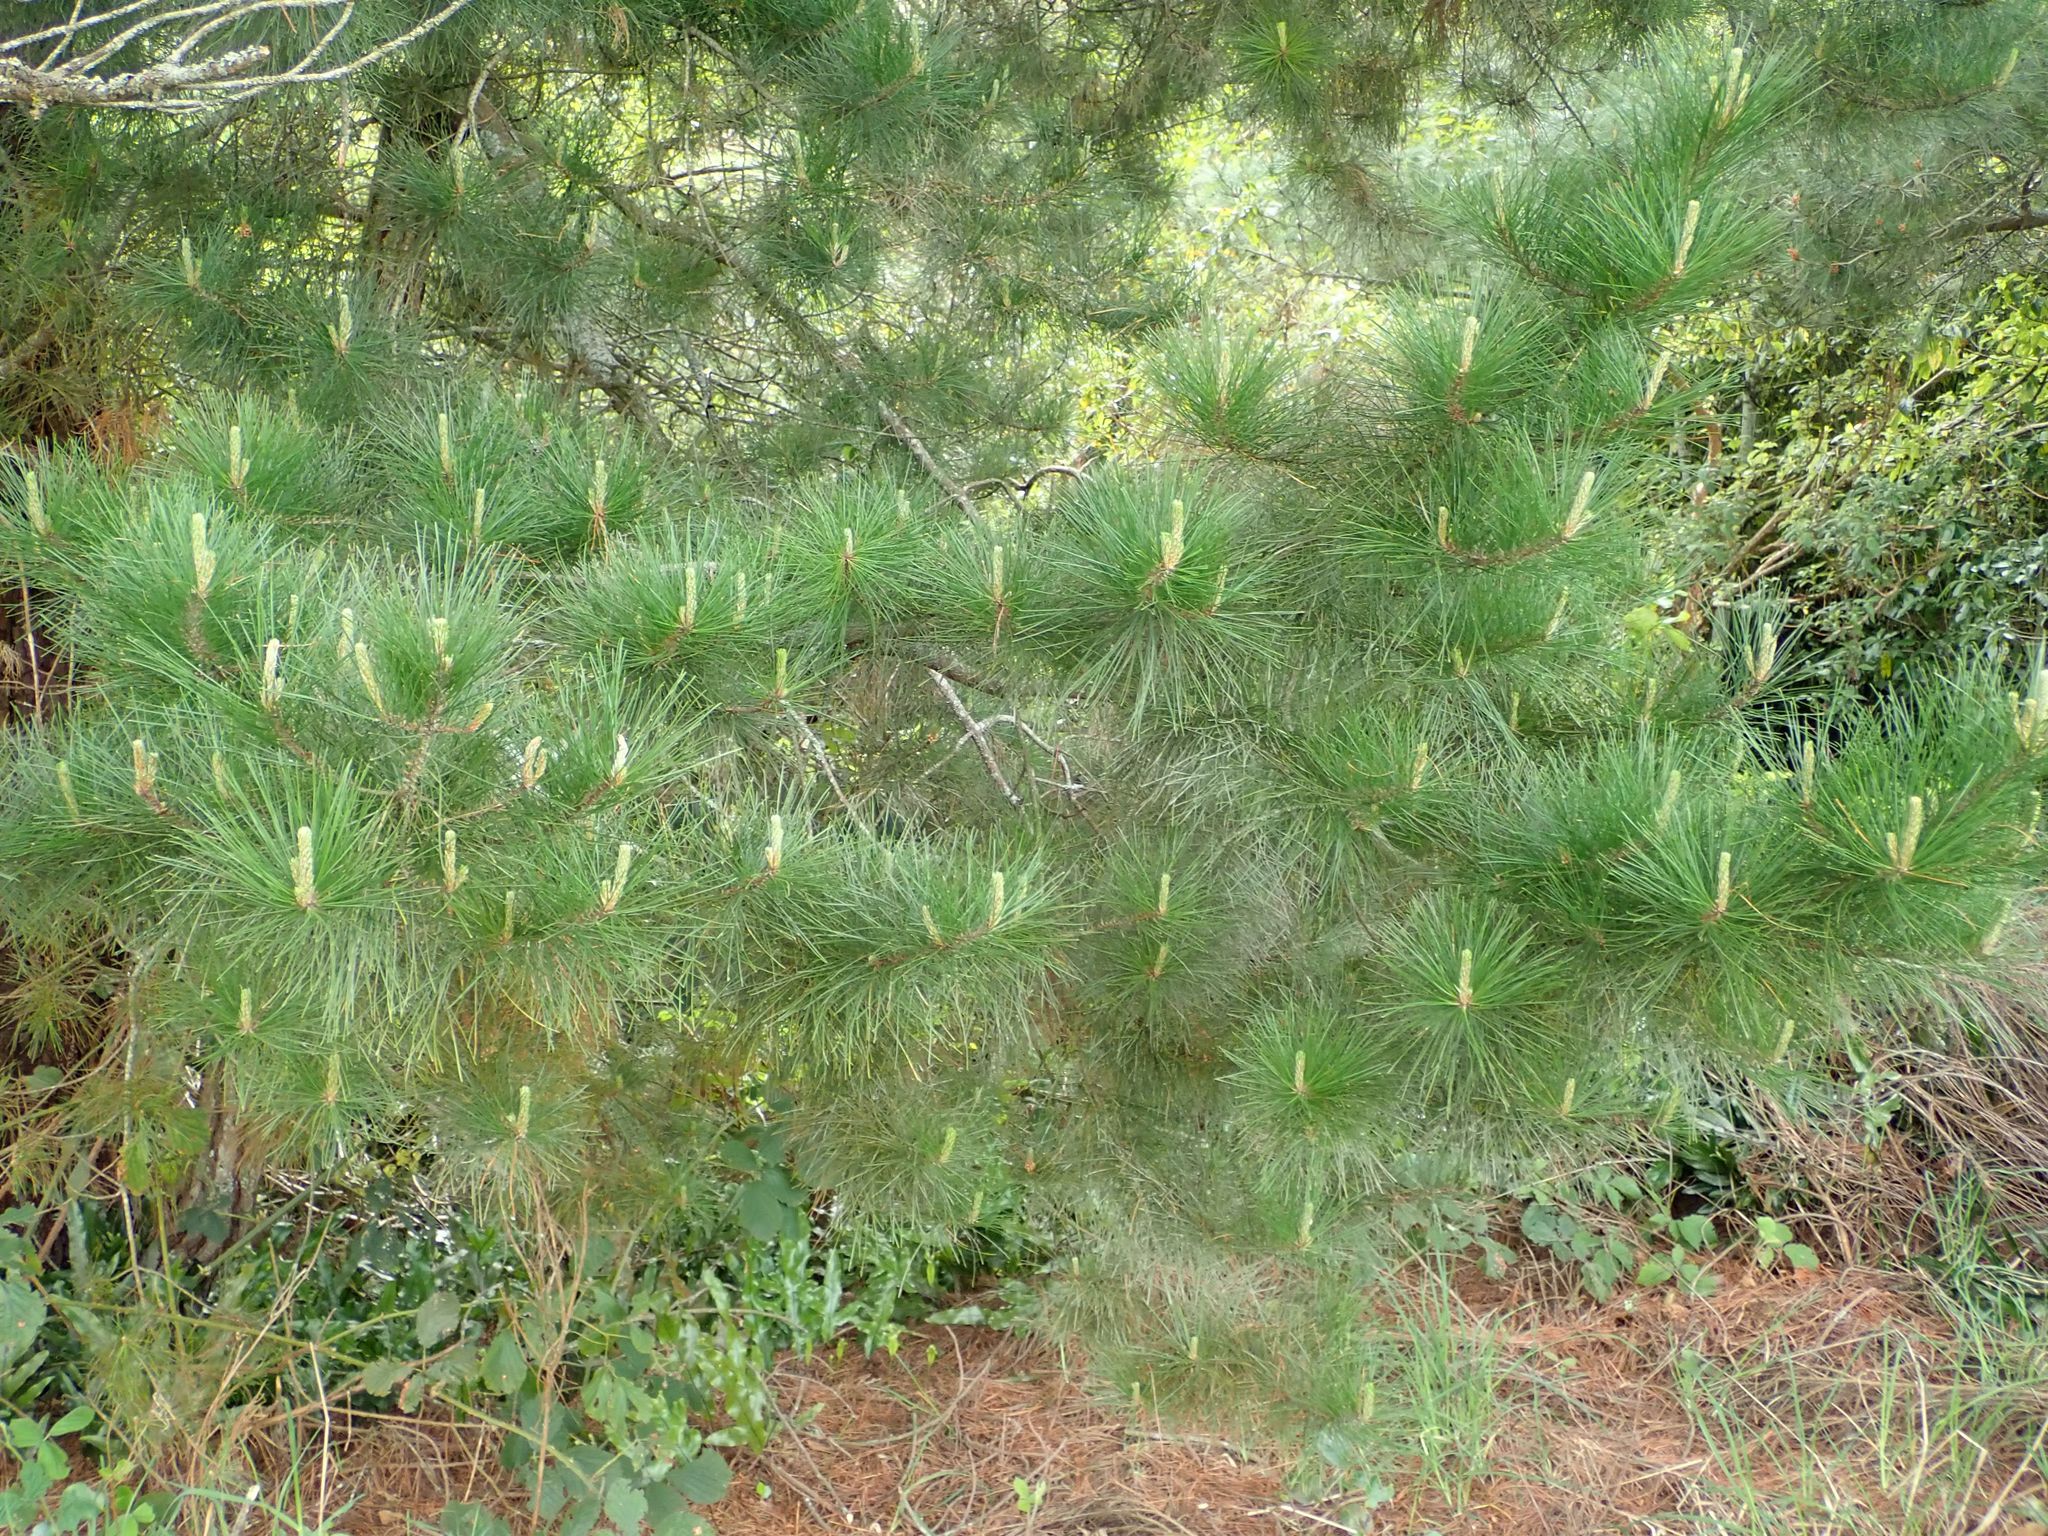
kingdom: Plantae
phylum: Tracheophyta
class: Pinopsida
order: Pinales
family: Pinaceae
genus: Pinus
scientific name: Pinus radiata
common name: Monterey pine
